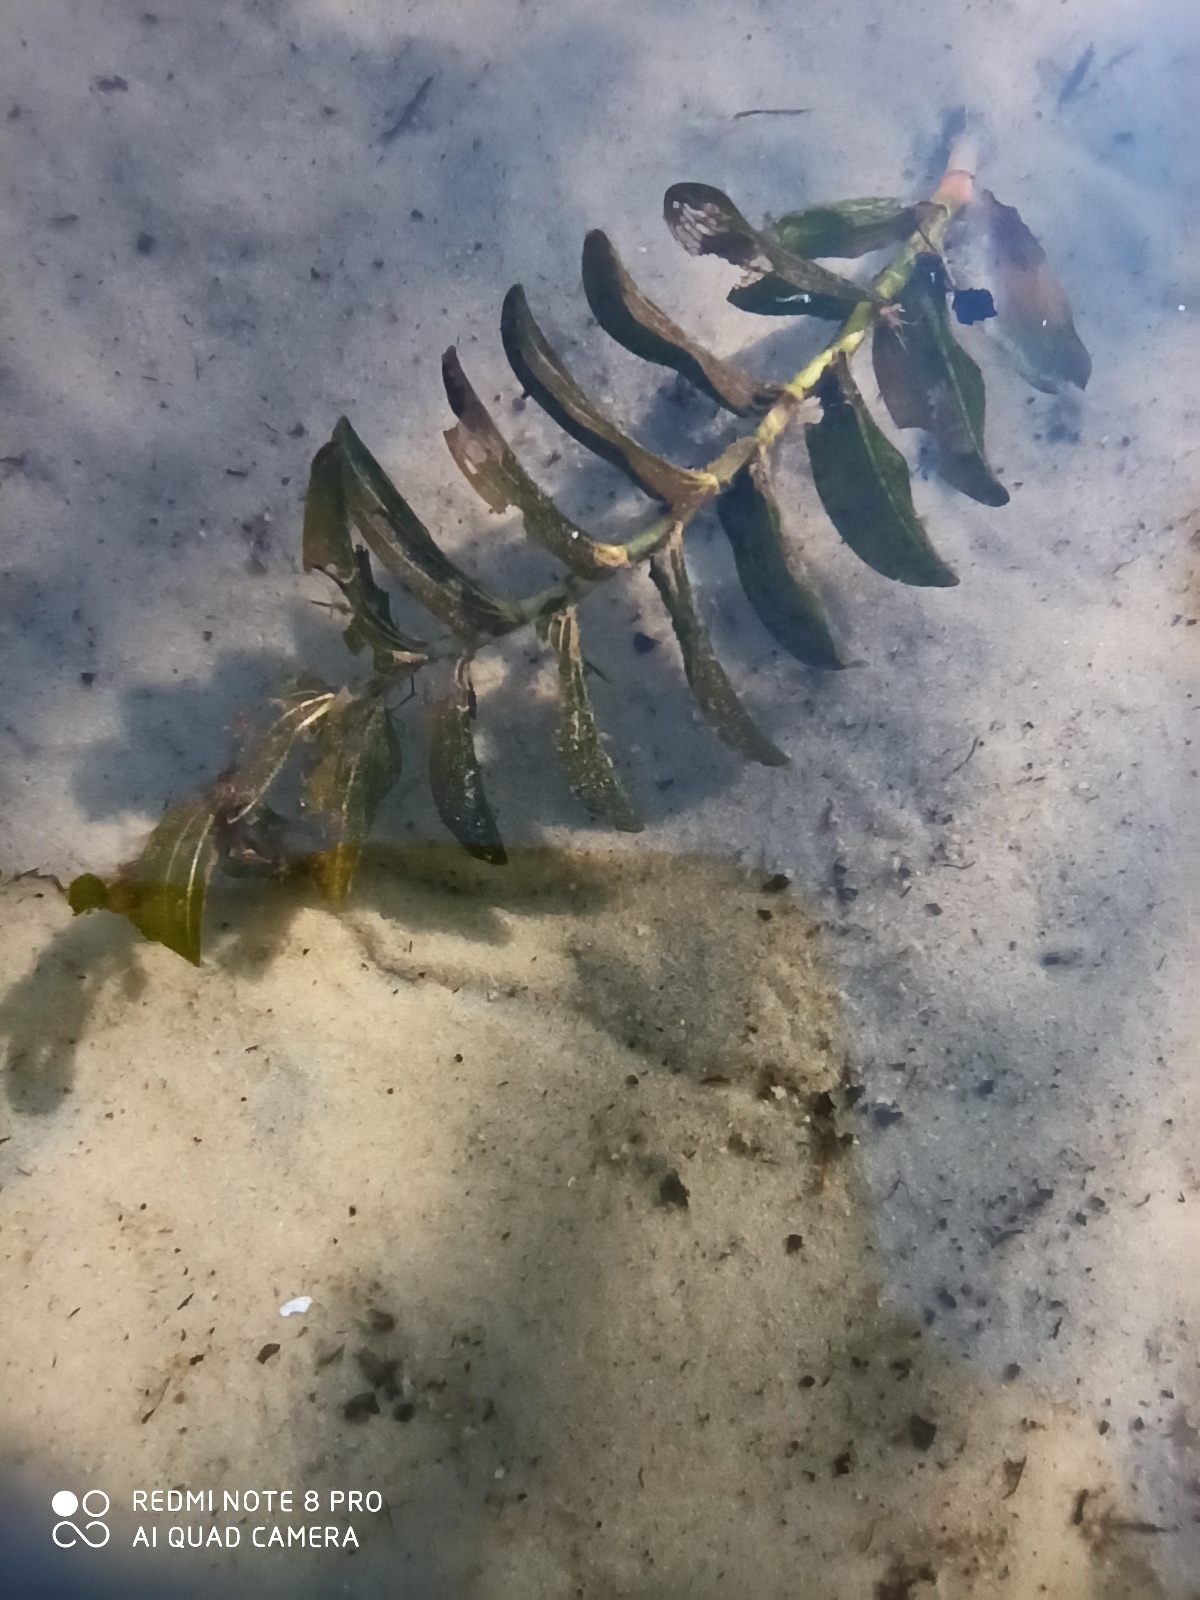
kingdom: Plantae
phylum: Tracheophyta
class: Liliopsida
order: Alismatales
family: Potamogetonaceae
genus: Potamogeton
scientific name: Potamogeton perfoliatus
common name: Perfoliate pondweed
